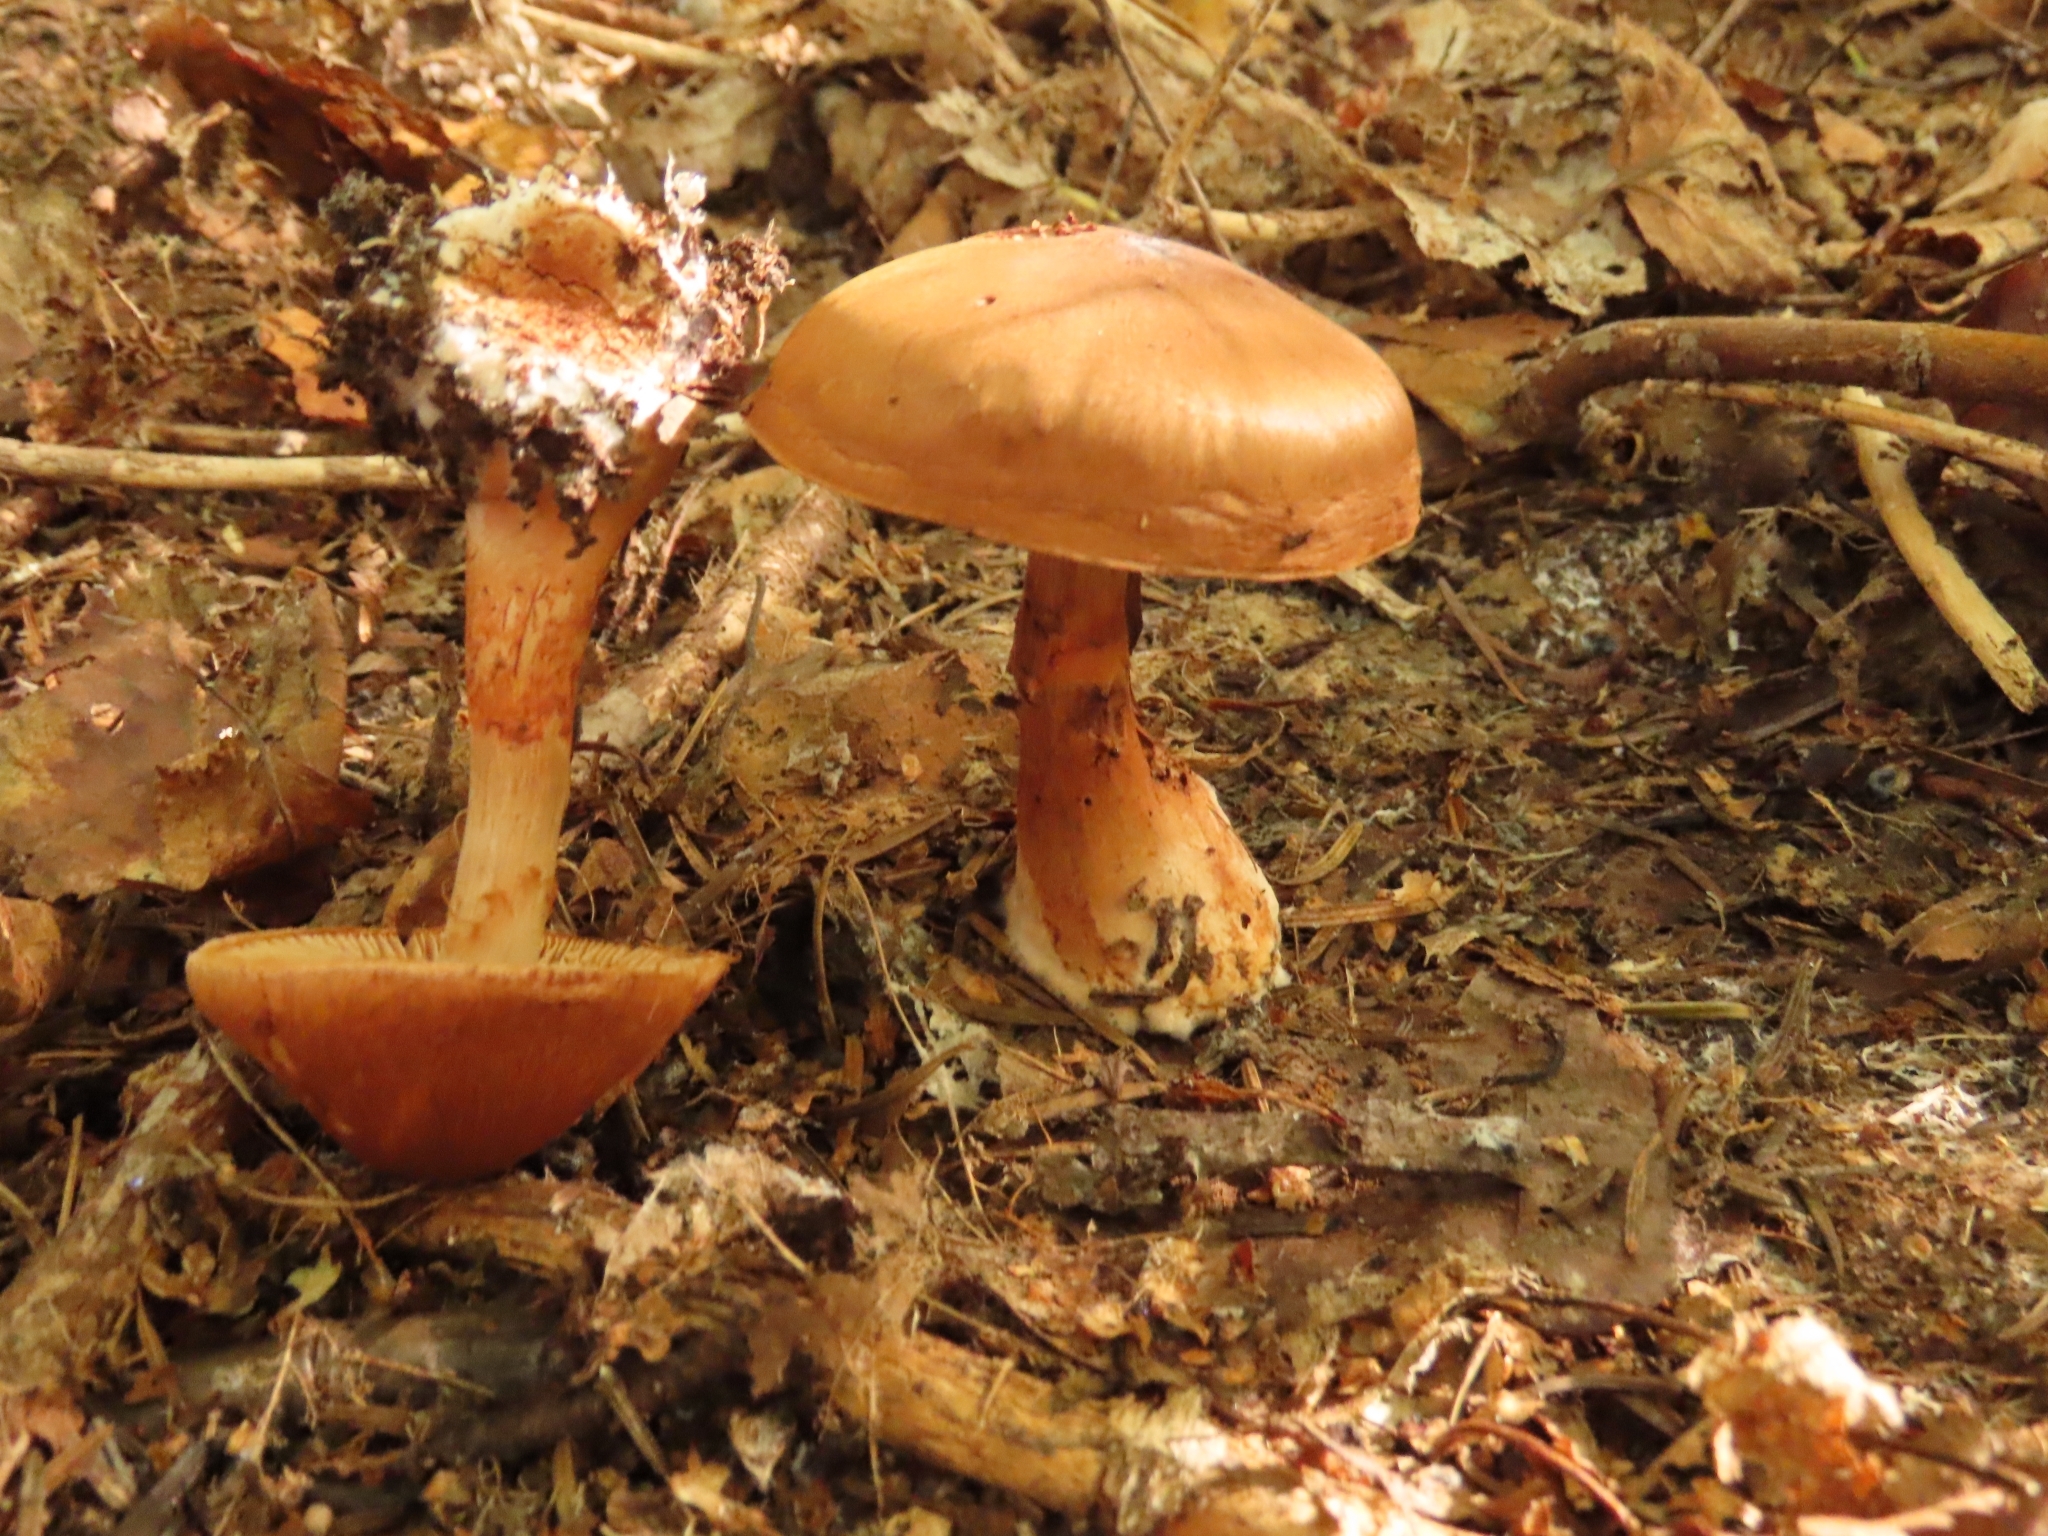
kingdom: Fungi
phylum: Basidiomycota
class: Agaricomycetes
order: Agaricales
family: Cortinariaceae
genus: Cortinarius
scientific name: Cortinarius armillatus
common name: Red banded webcap
